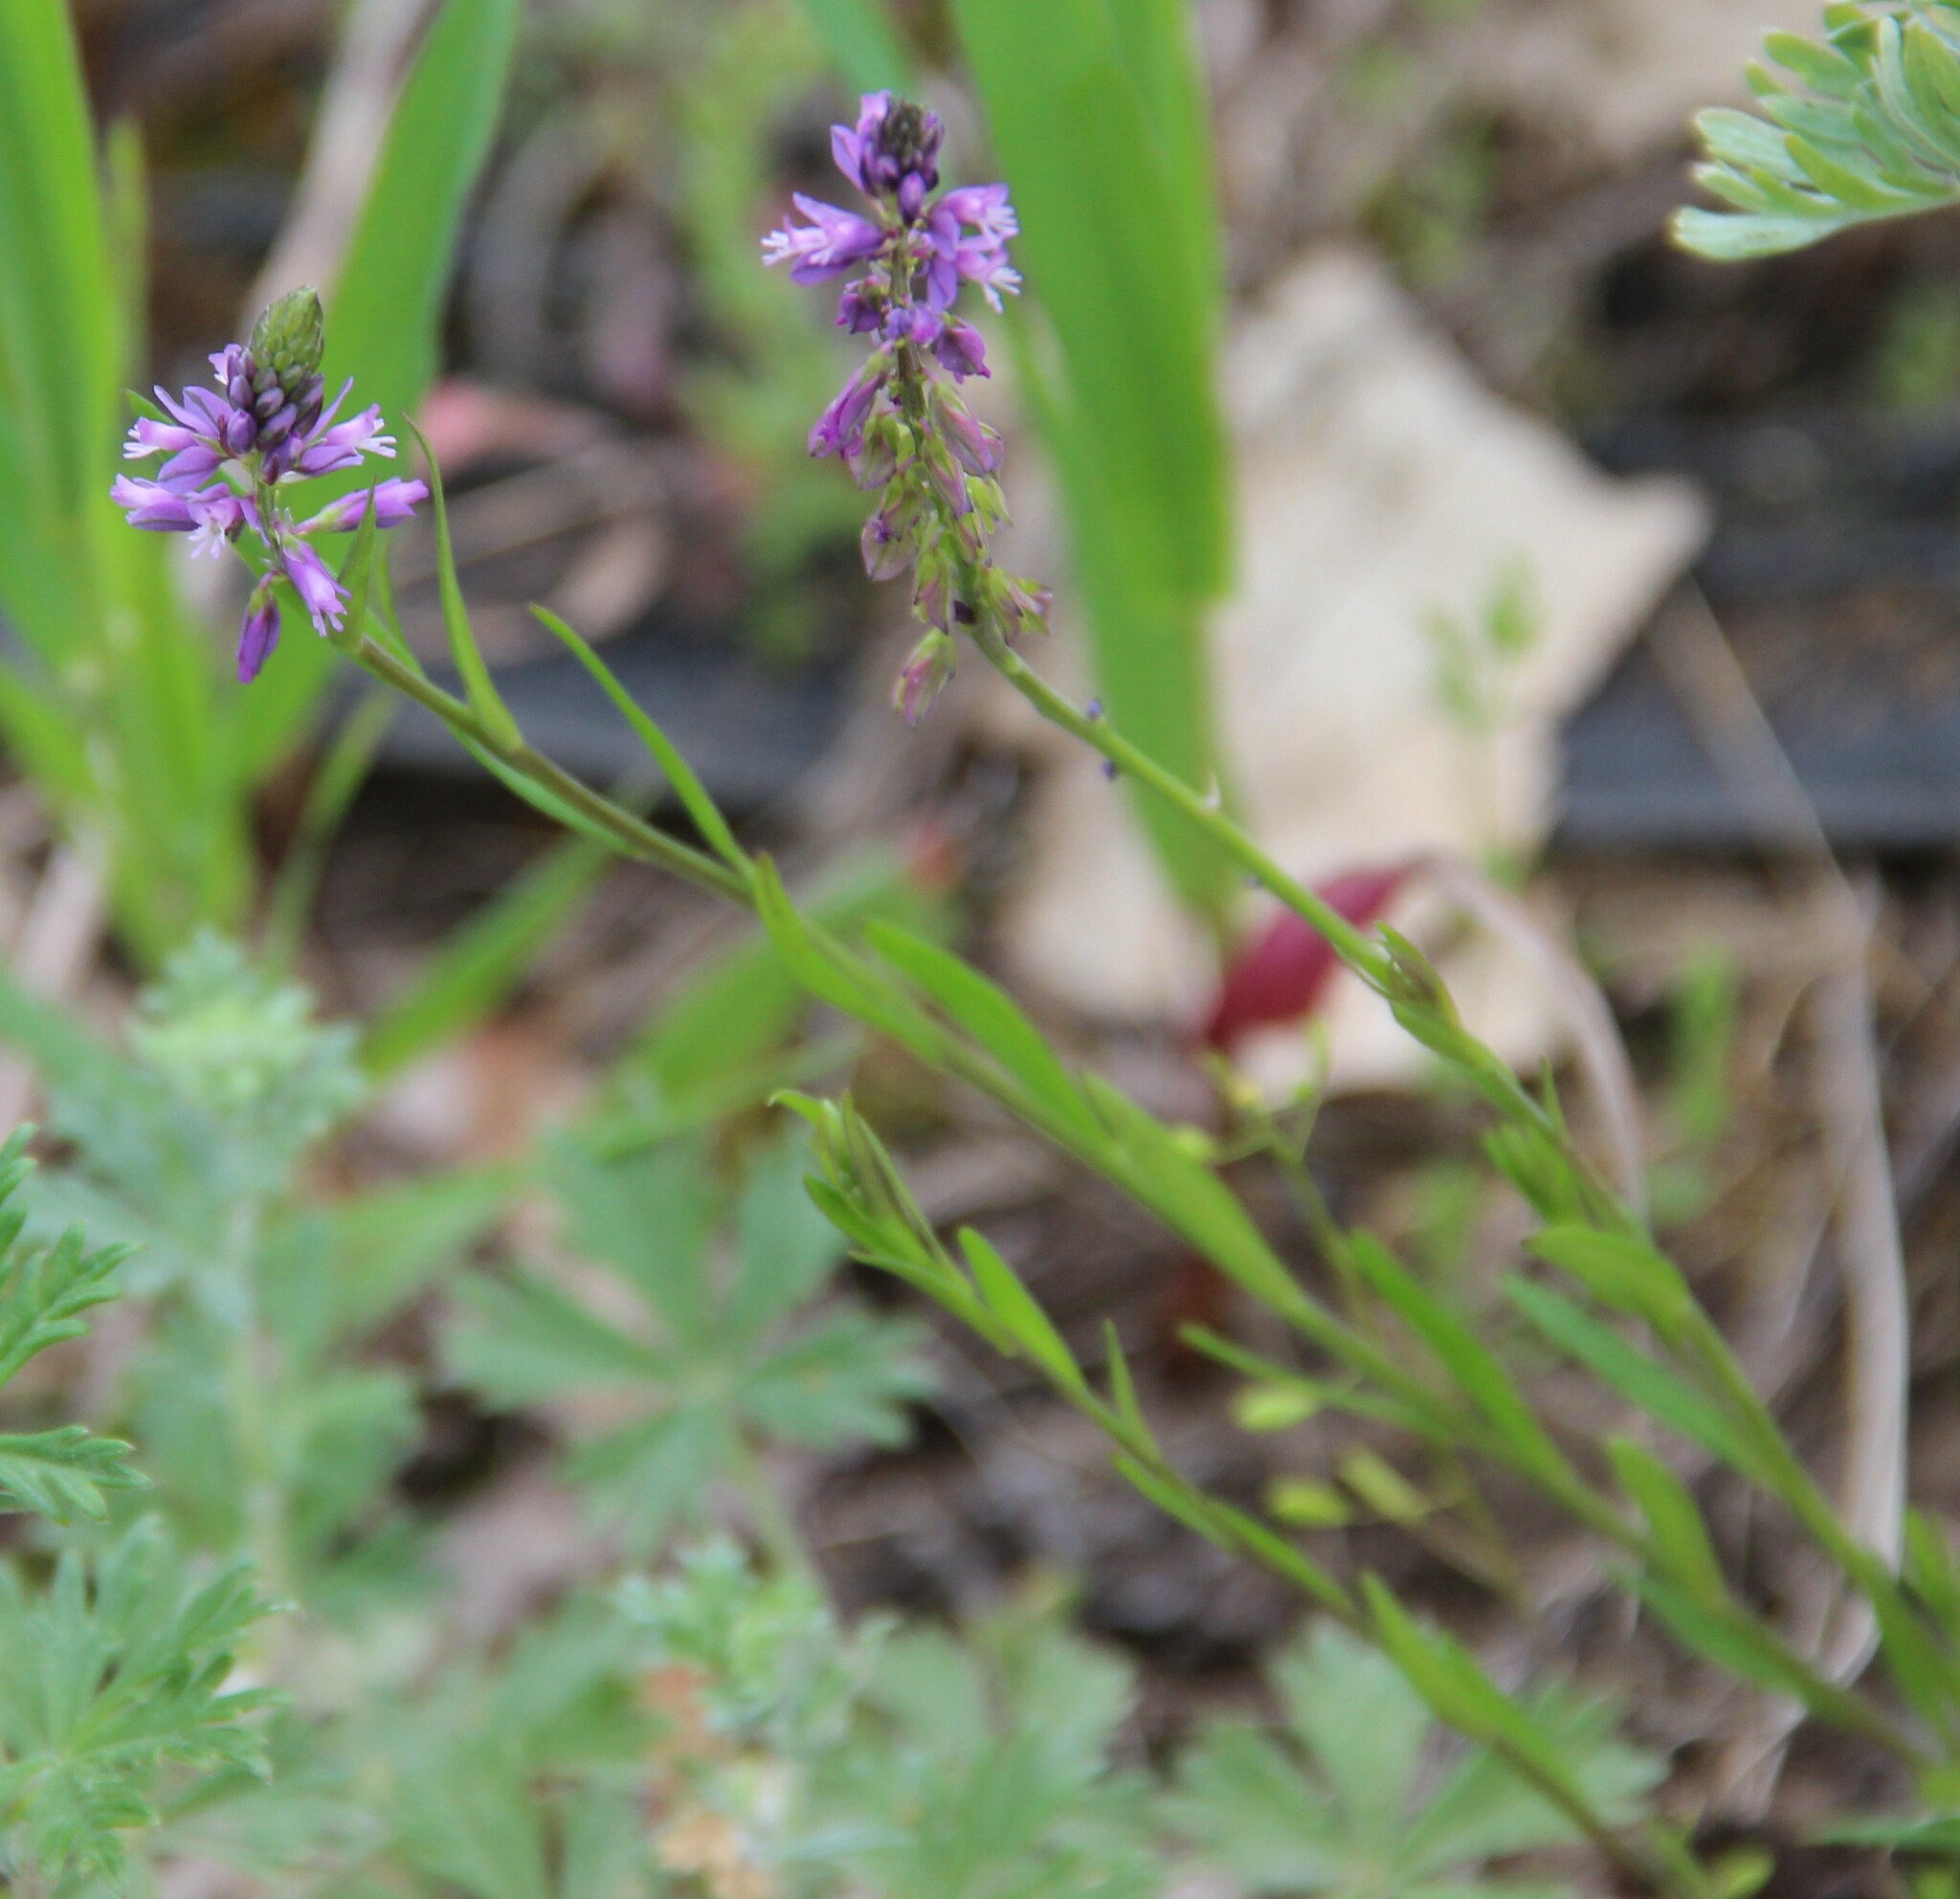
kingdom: Plantae
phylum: Tracheophyta
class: Magnoliopsida
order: Fabales
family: Polygalaceae
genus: Polygala
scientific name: Polygala comosa
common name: Tufted milkwort
